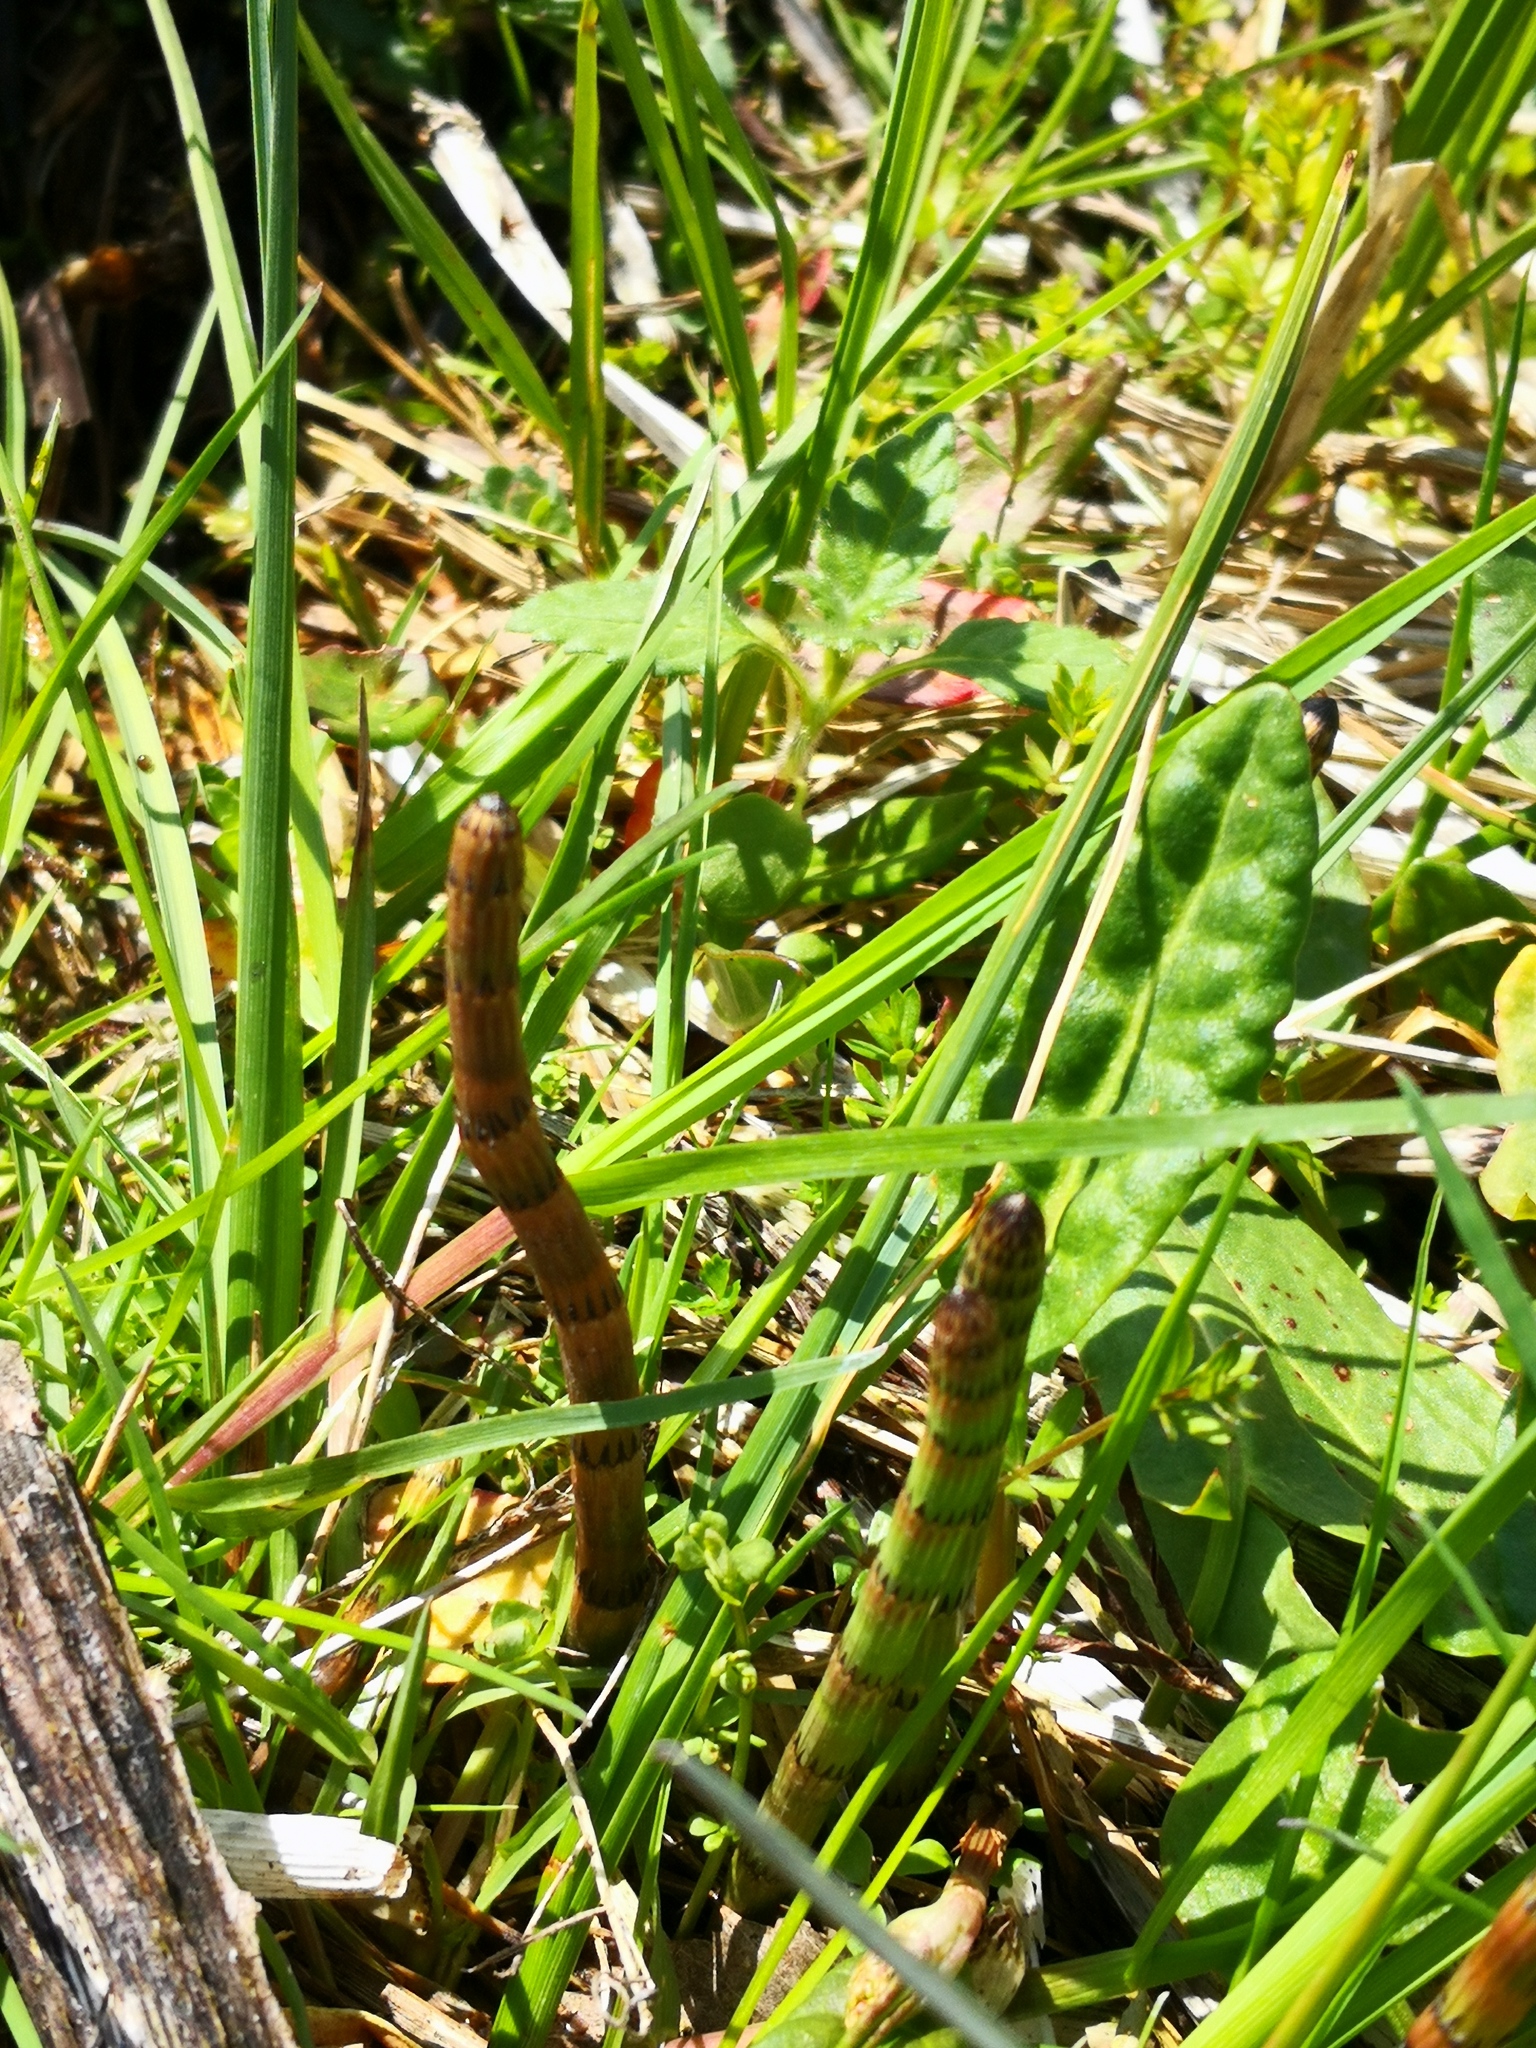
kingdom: Plantae
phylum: Tracheophyta
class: Polypodiopsida
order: Equisetales
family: Equisetaceae
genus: Equisetum
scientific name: Equisetum fluviatile
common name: Water horsetail
